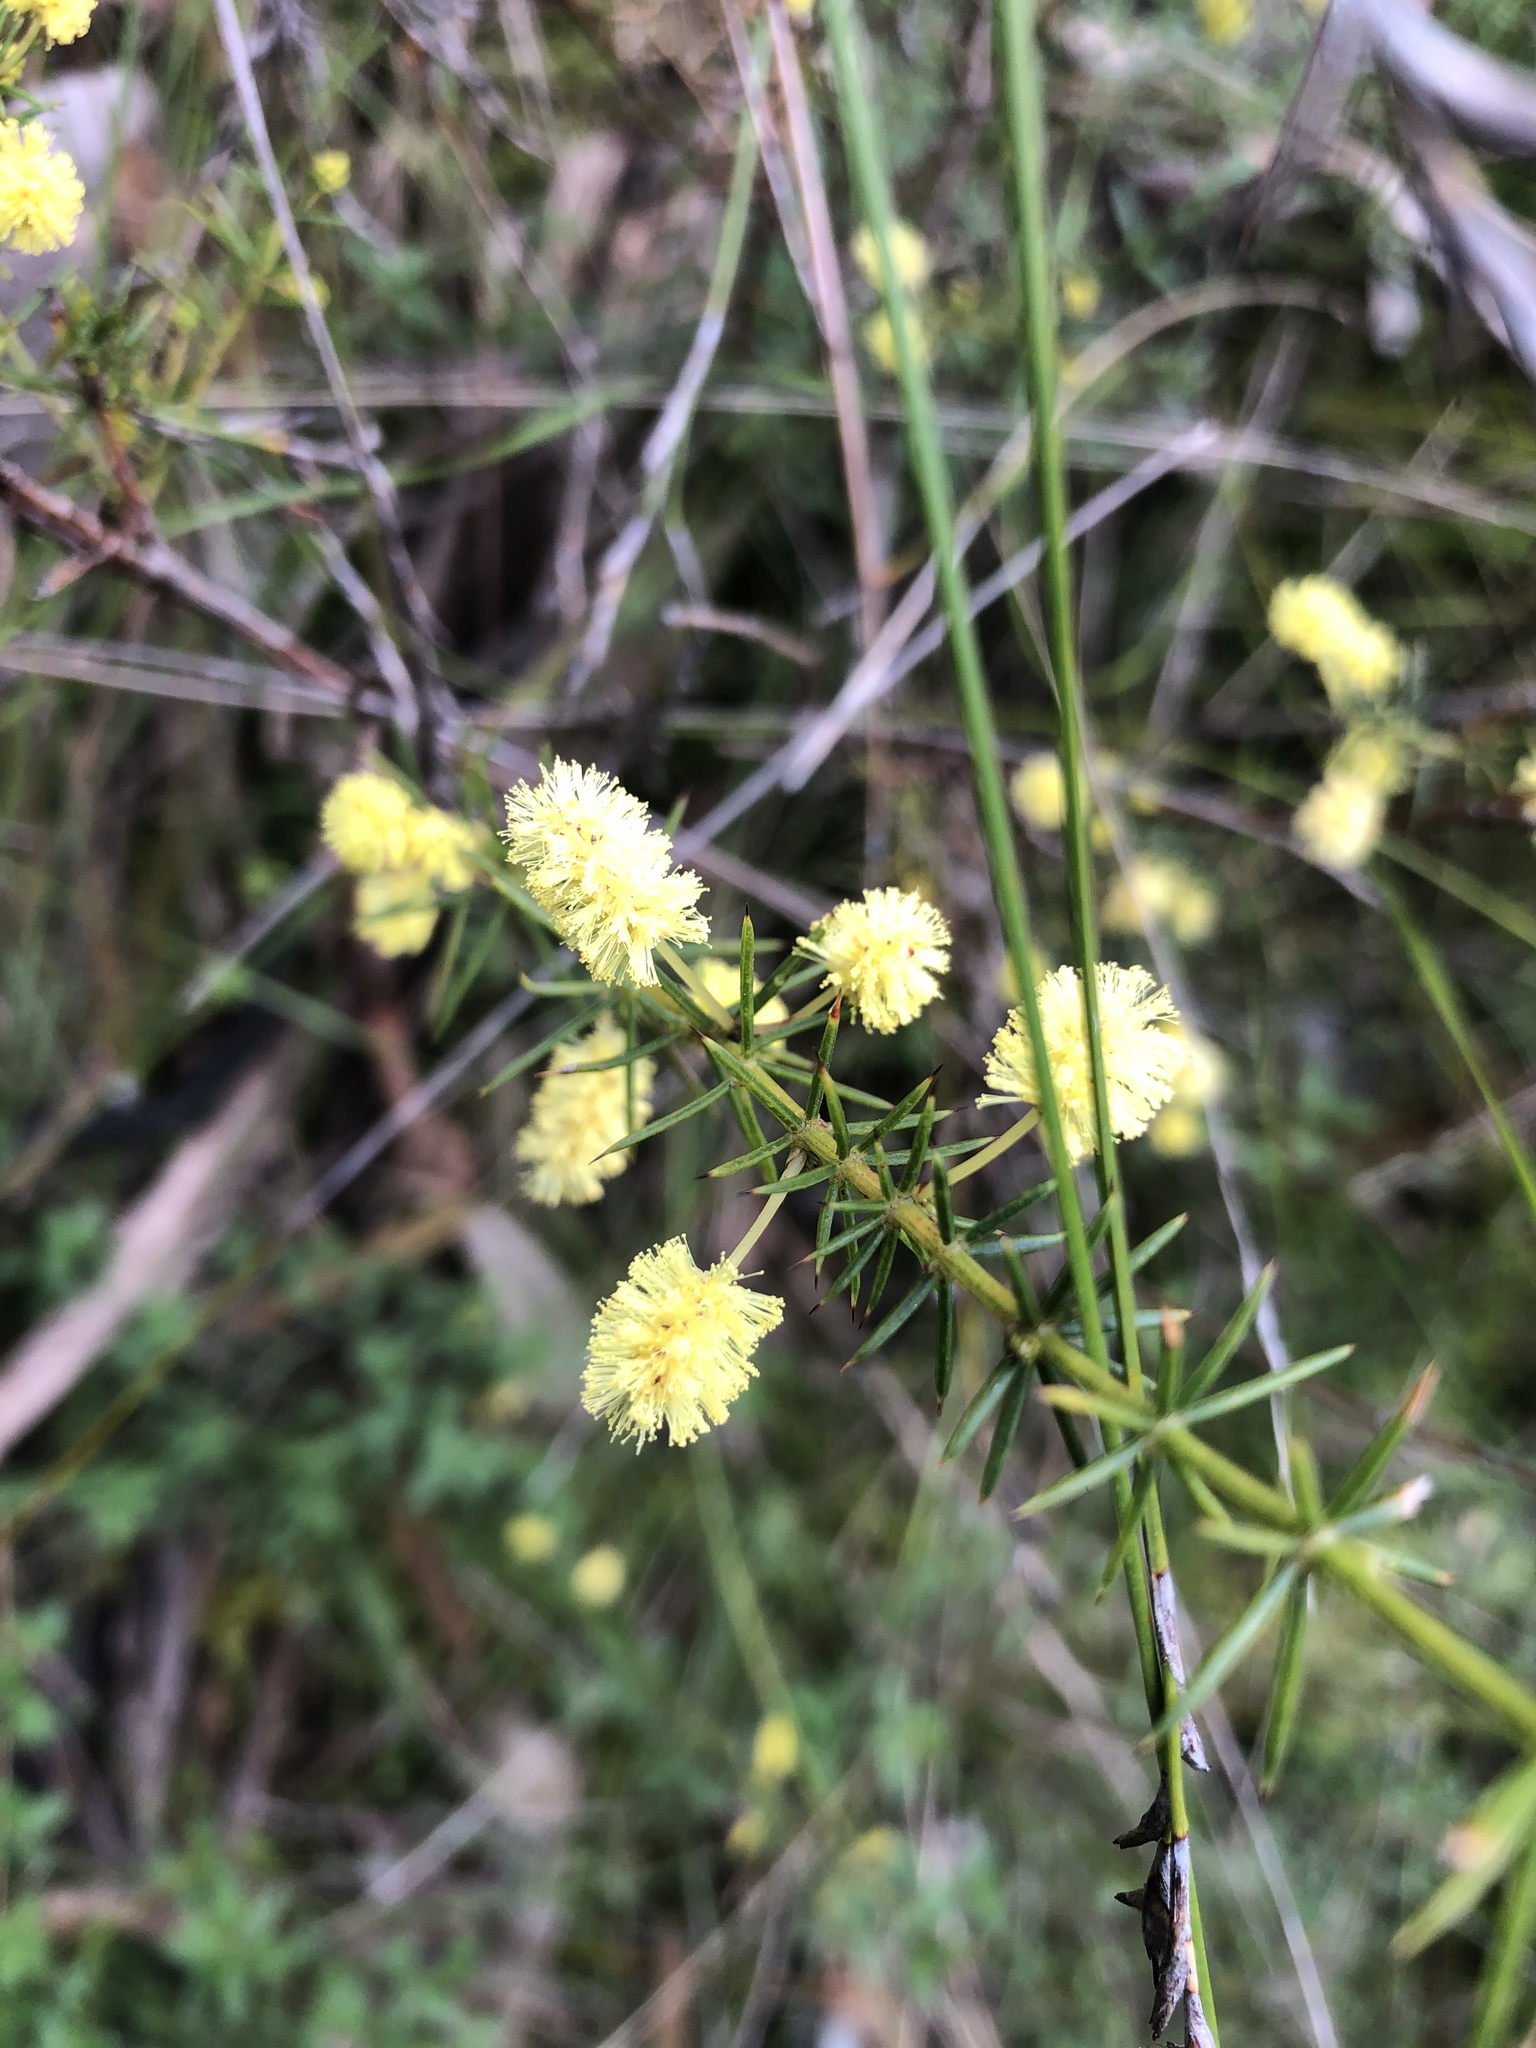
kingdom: Plantae
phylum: Tracheophyta
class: Magnoliopsida
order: Fabales
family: Fabaceae
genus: Acacia
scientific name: Acacia verticillata
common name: Prickly moses
